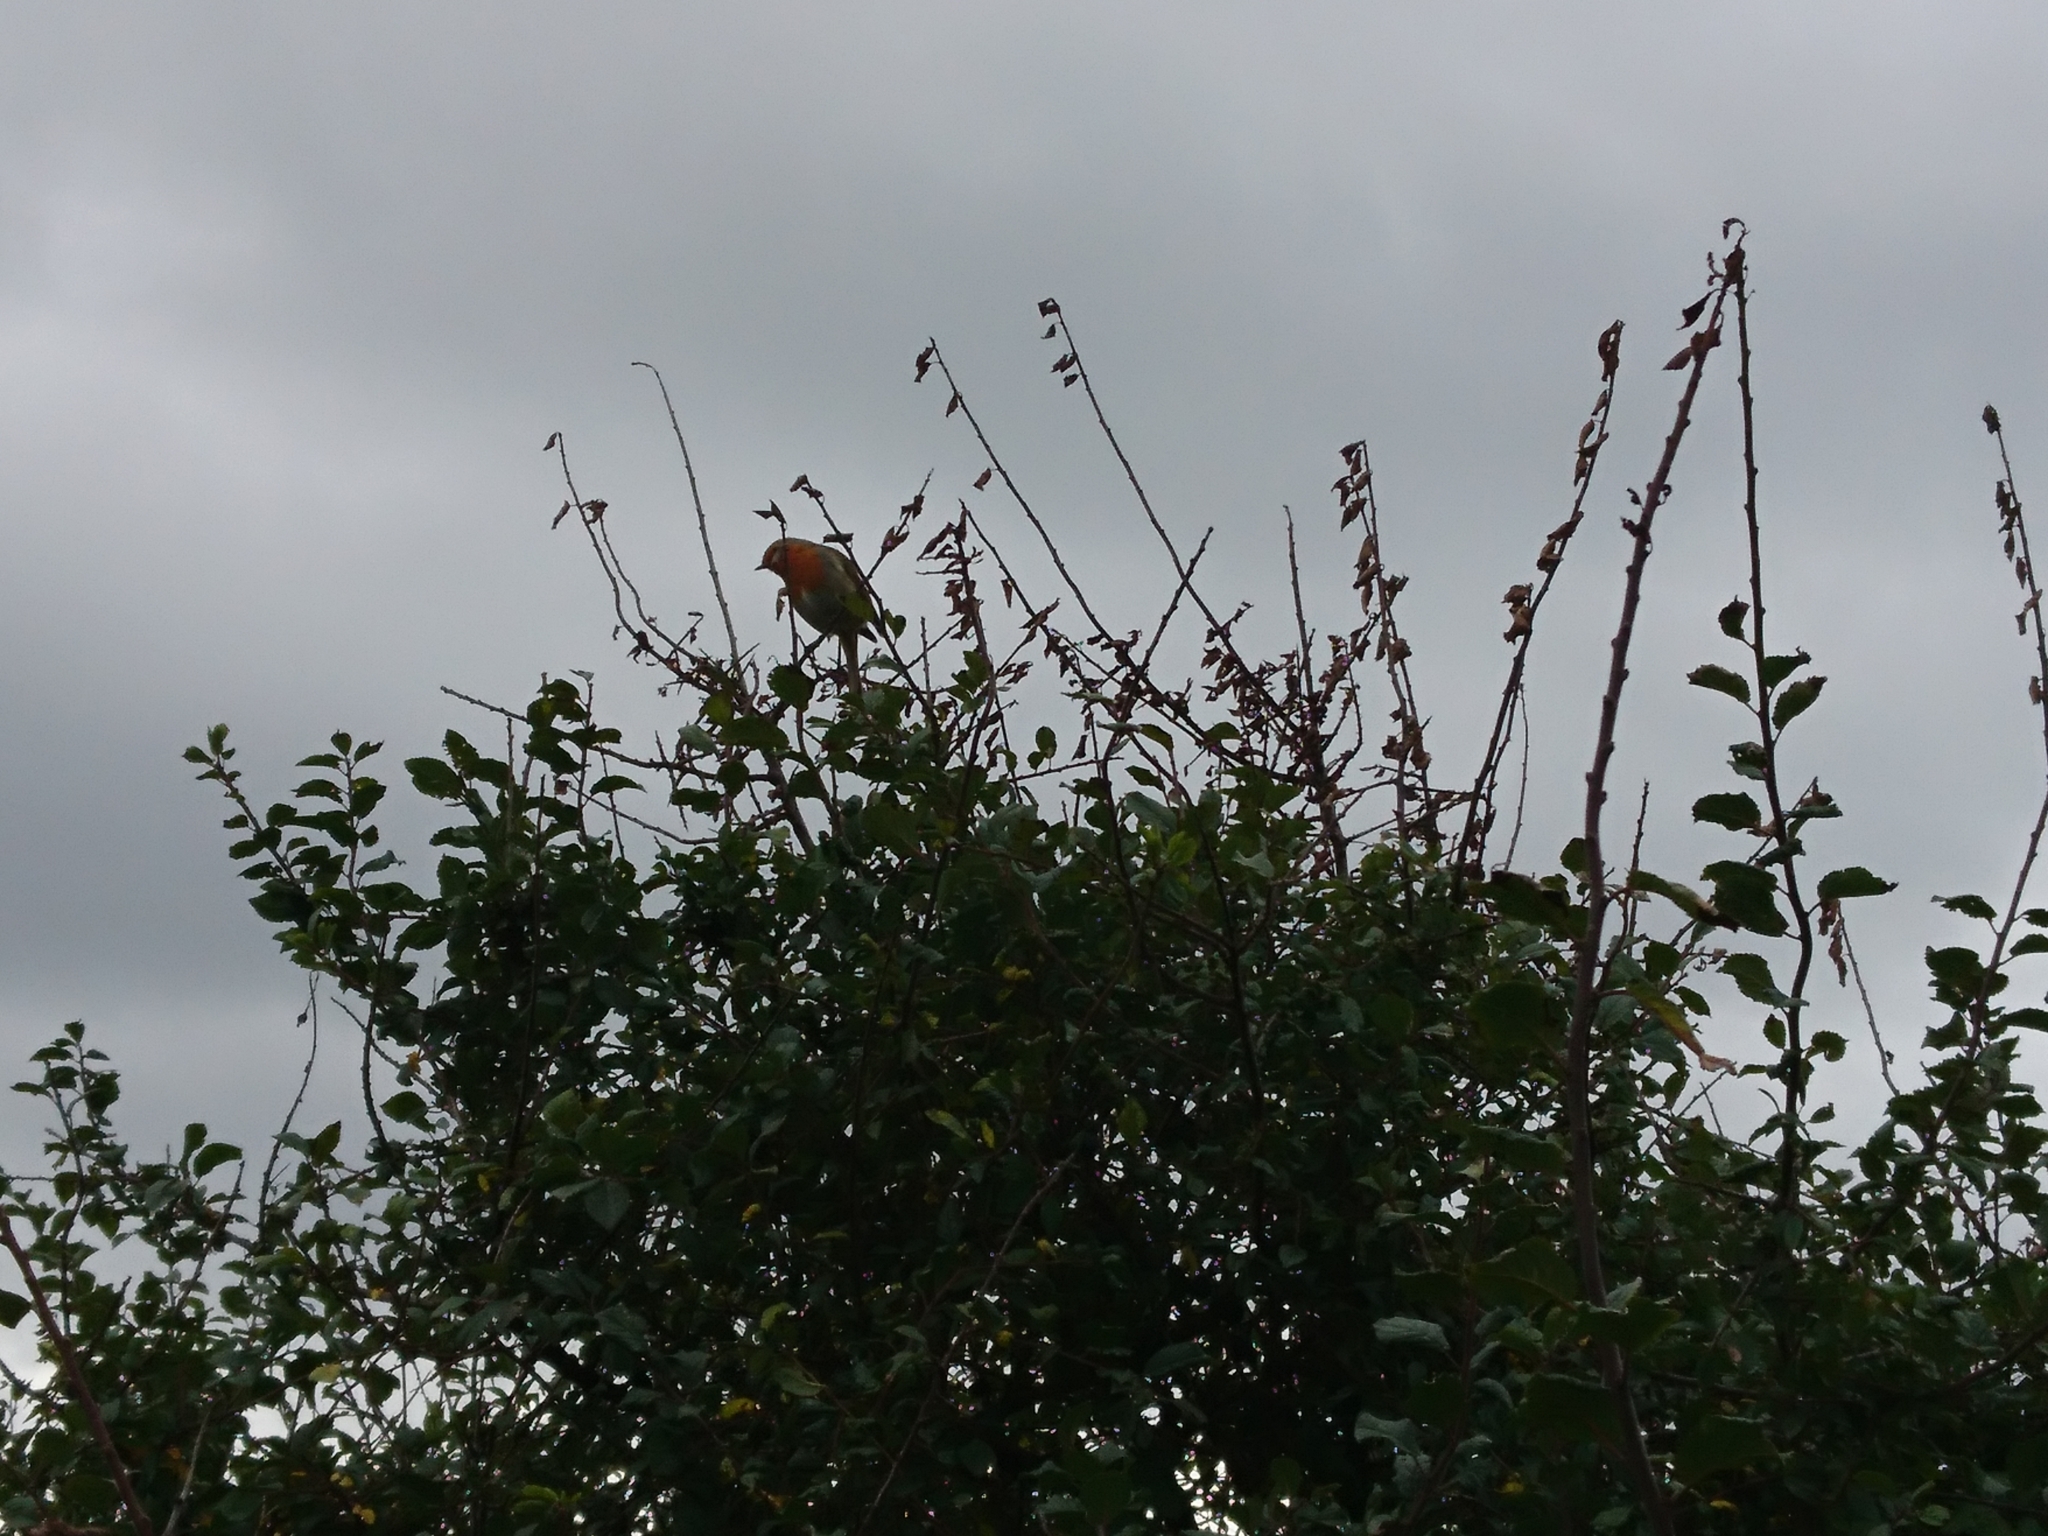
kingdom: Animalia
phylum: Chordata
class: Aves
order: Passeriformes
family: Muscicapidae
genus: Erithacus
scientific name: Erithacus rubecula
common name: European robin
